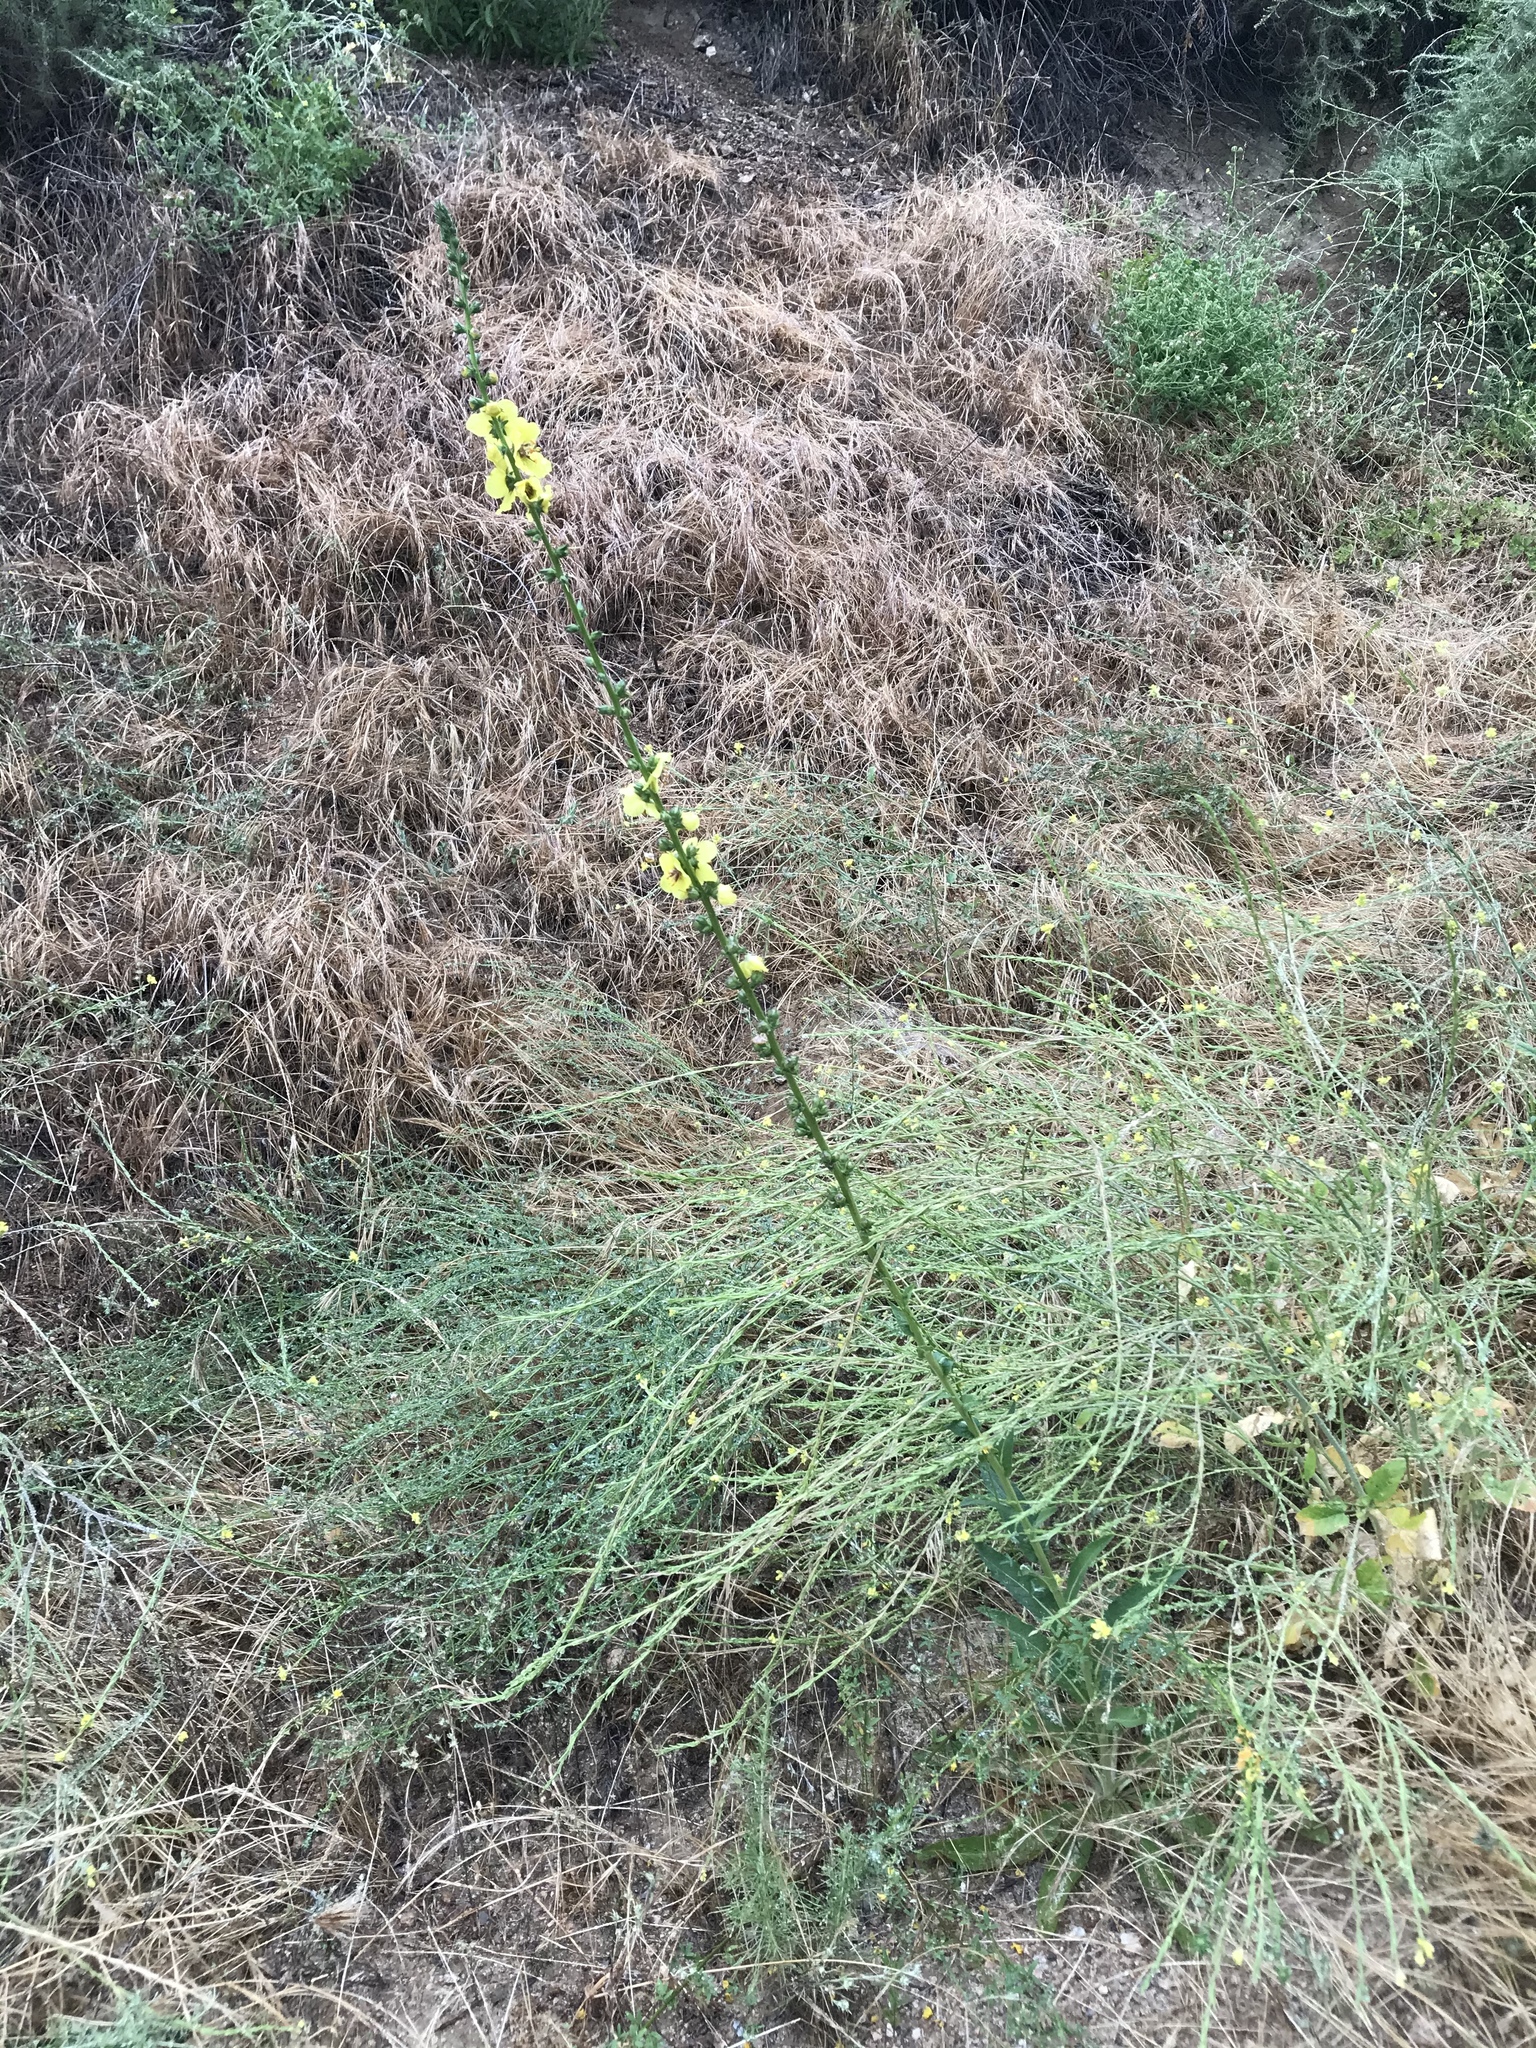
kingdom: Plantae
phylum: Tracheophyta
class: Magnoliopsida
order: Lamiales
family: Scrophulariaceae
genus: Verbascum
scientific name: Verbascum virgatum
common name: Twiggy mullein
